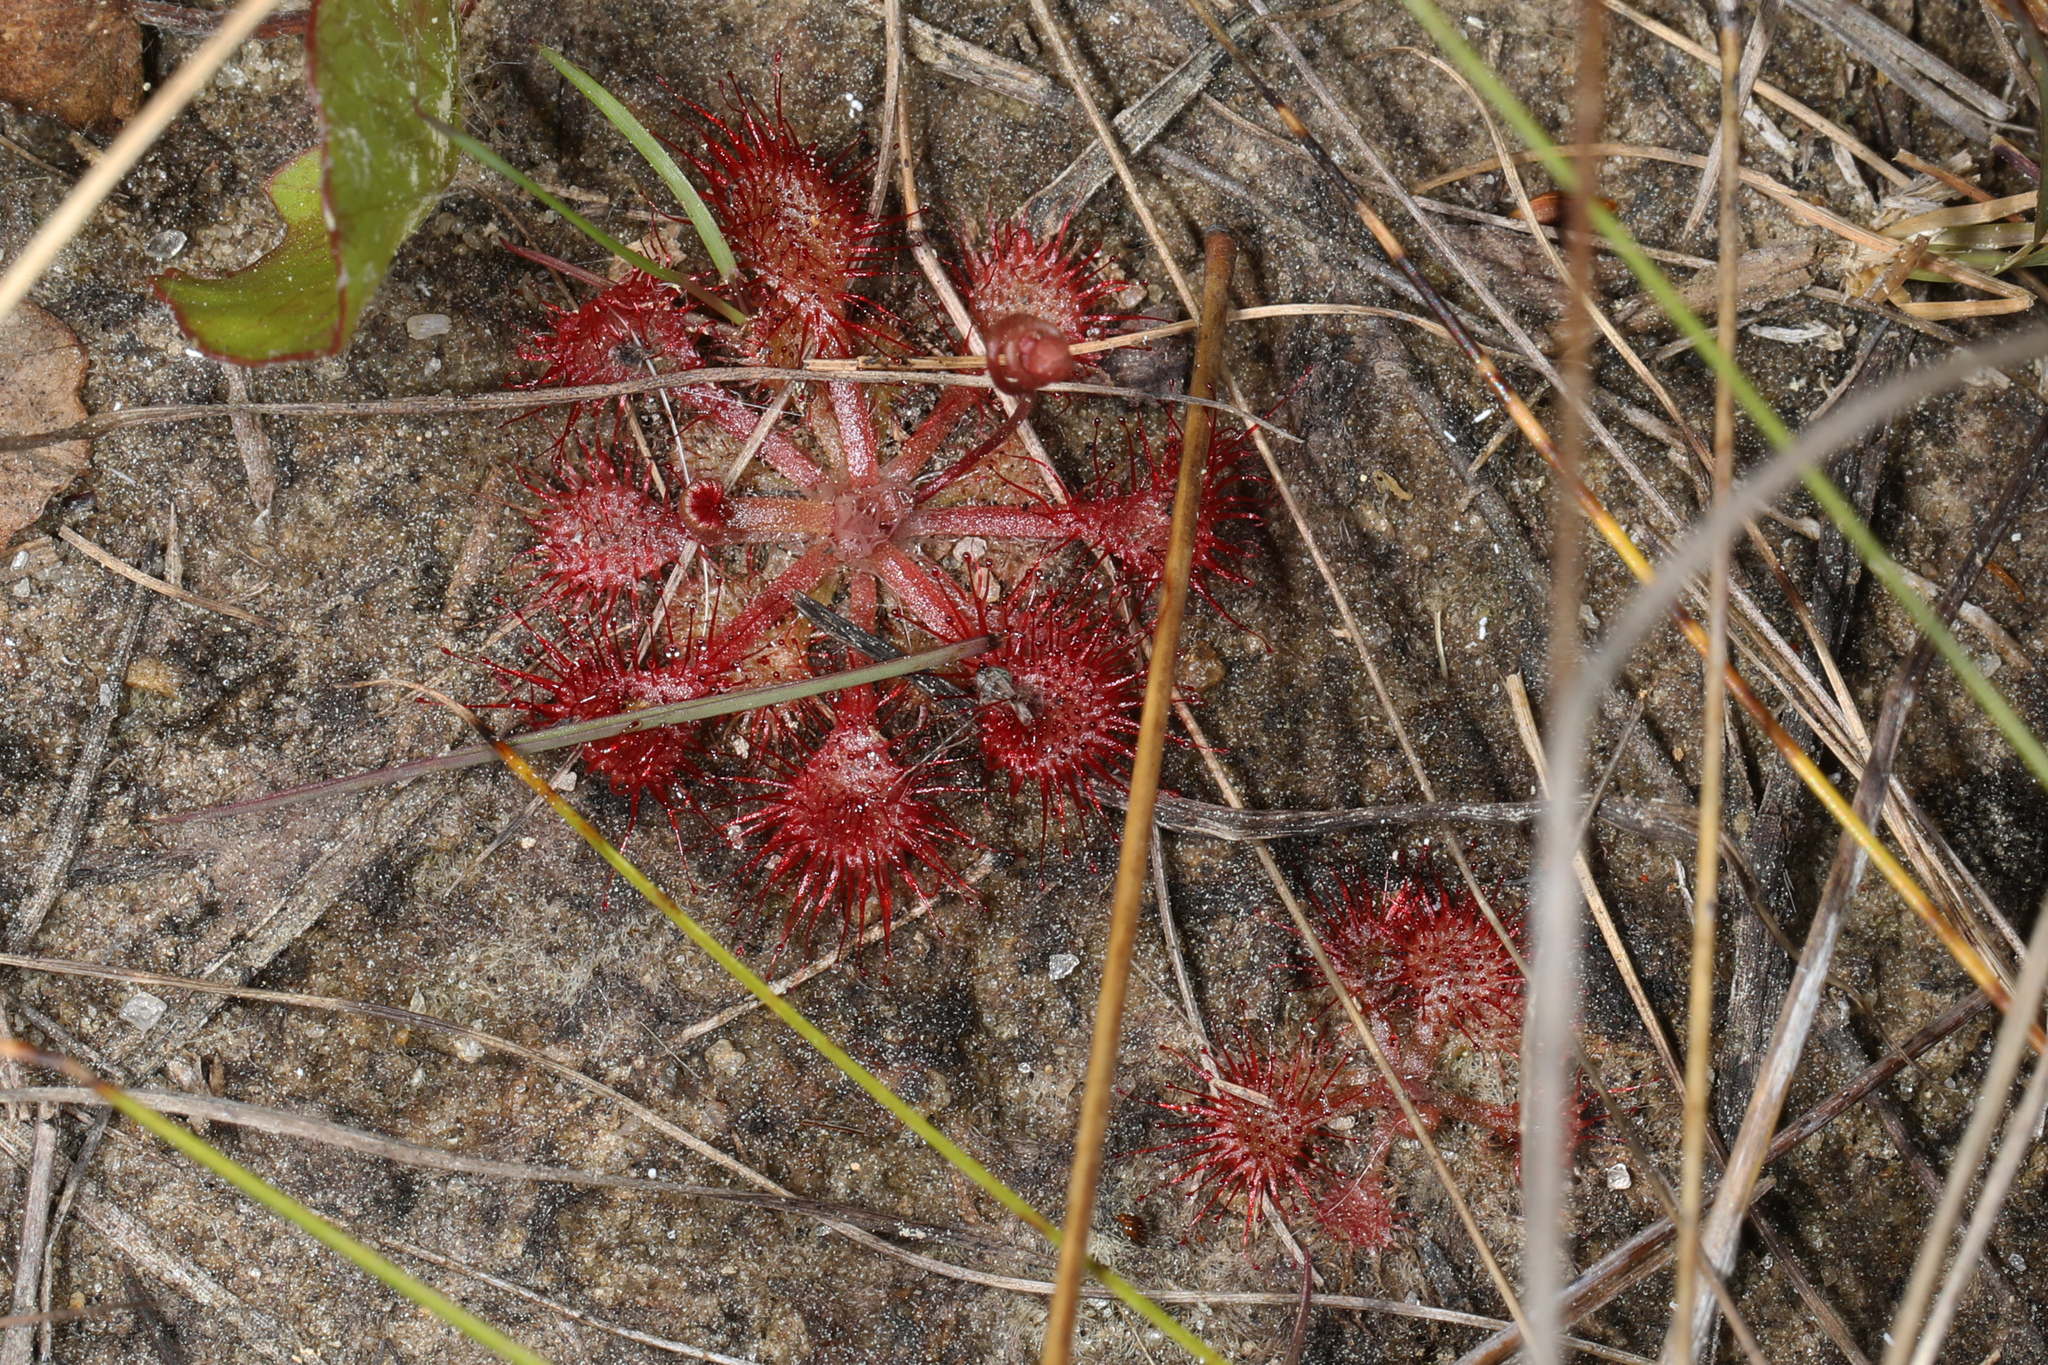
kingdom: Plantae
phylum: Tracheophyta
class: Magnoliopsida
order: Caryophyllales
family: Droseraceae
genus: Drosera
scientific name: Drosera capillaris
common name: Pink sundew
